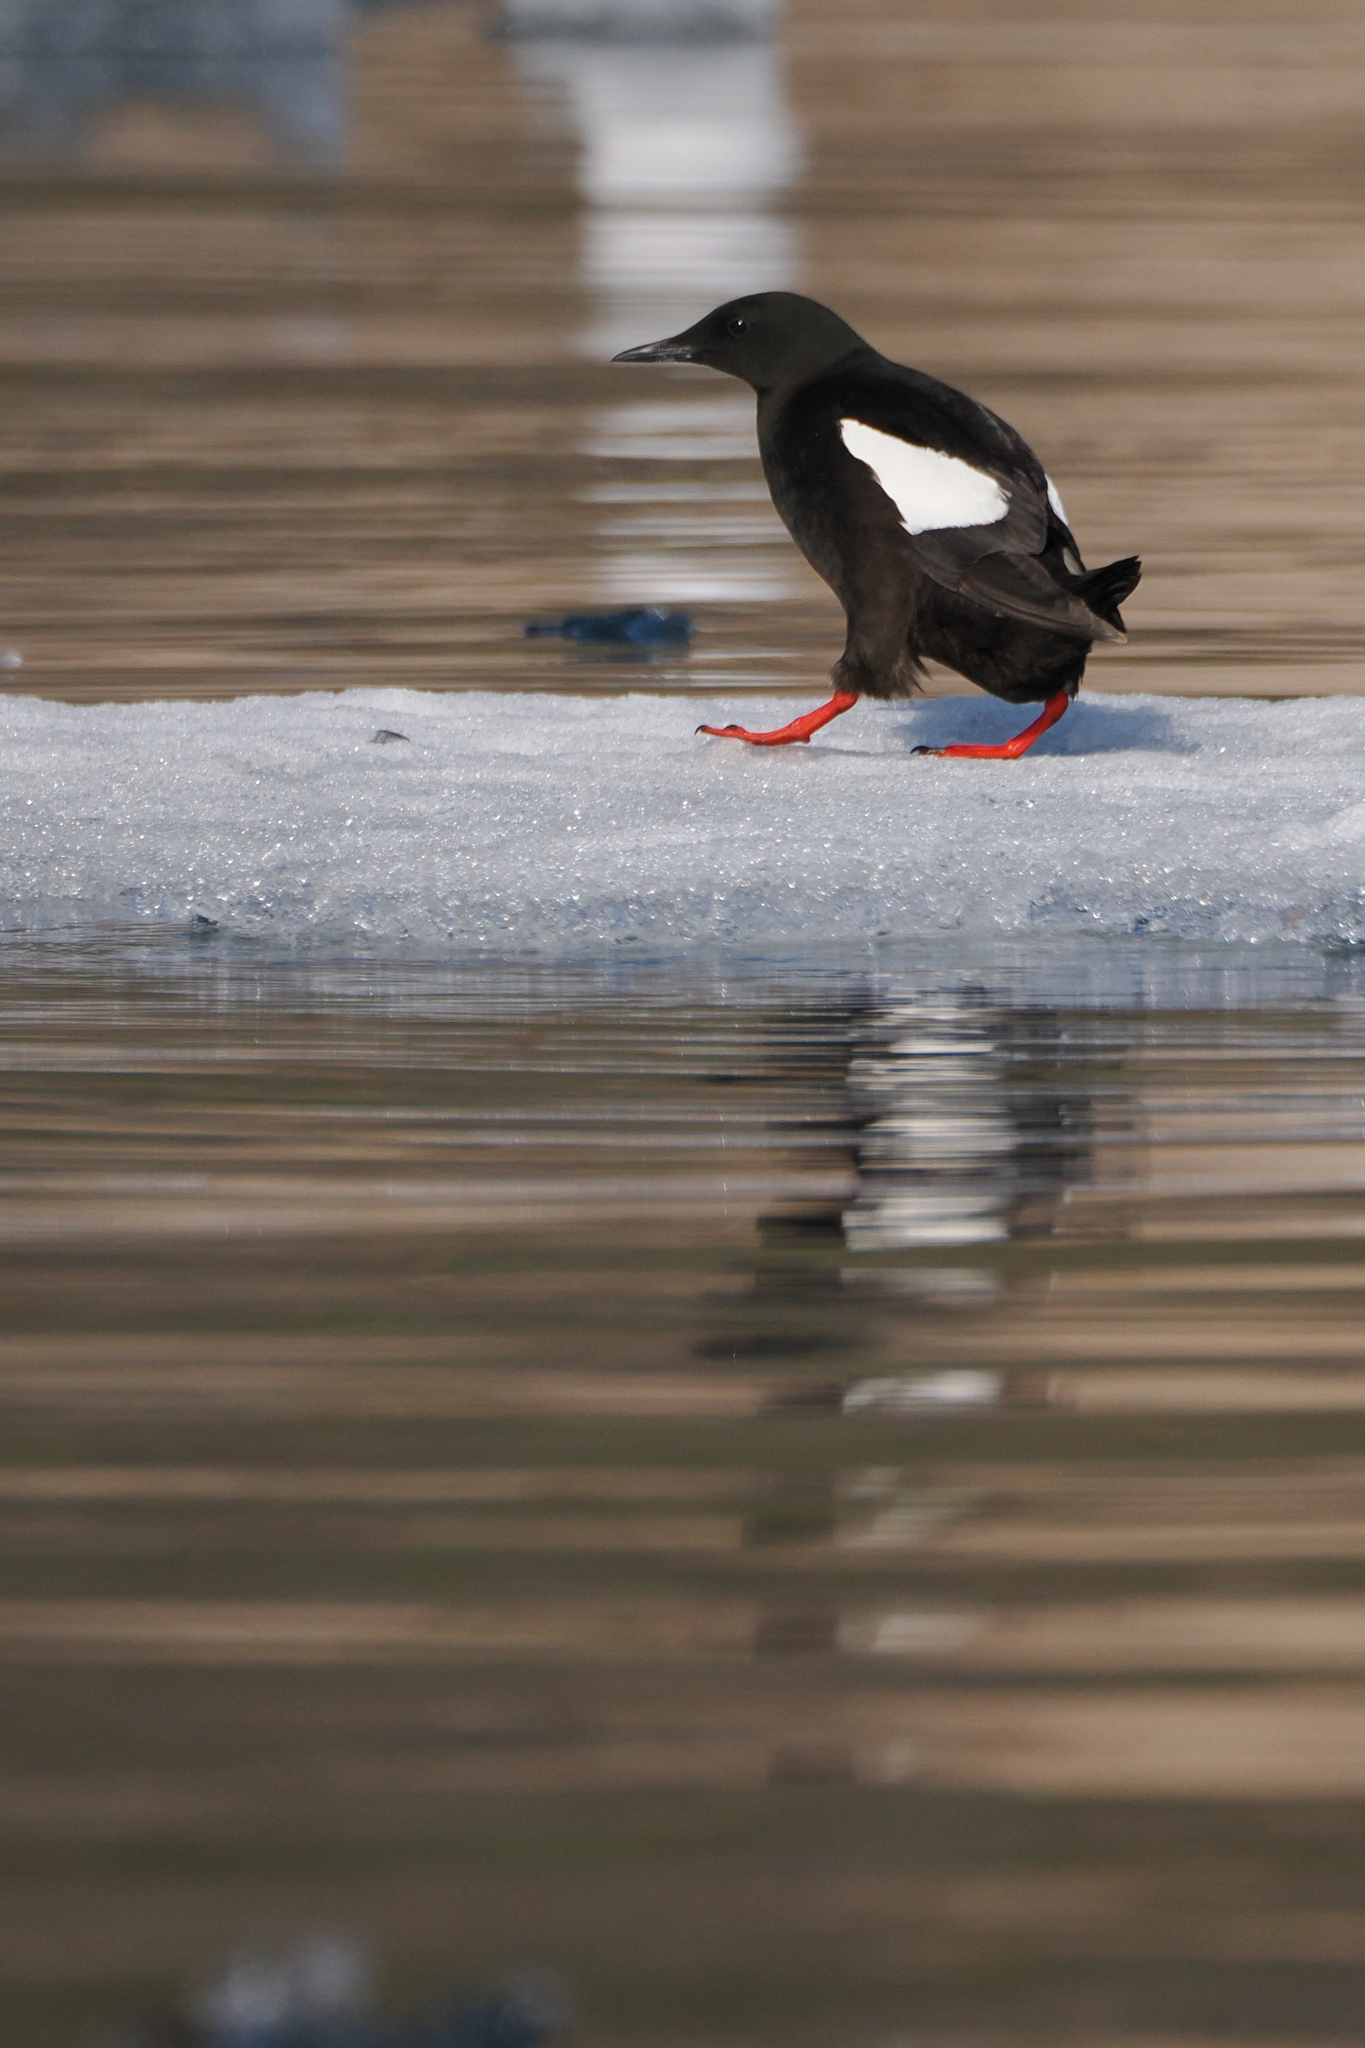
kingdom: Animalia
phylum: Chordata
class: Aves
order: Charadriiformes
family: Alcidae
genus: Cepphus
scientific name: Cepphus grylle
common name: Black guillemot
